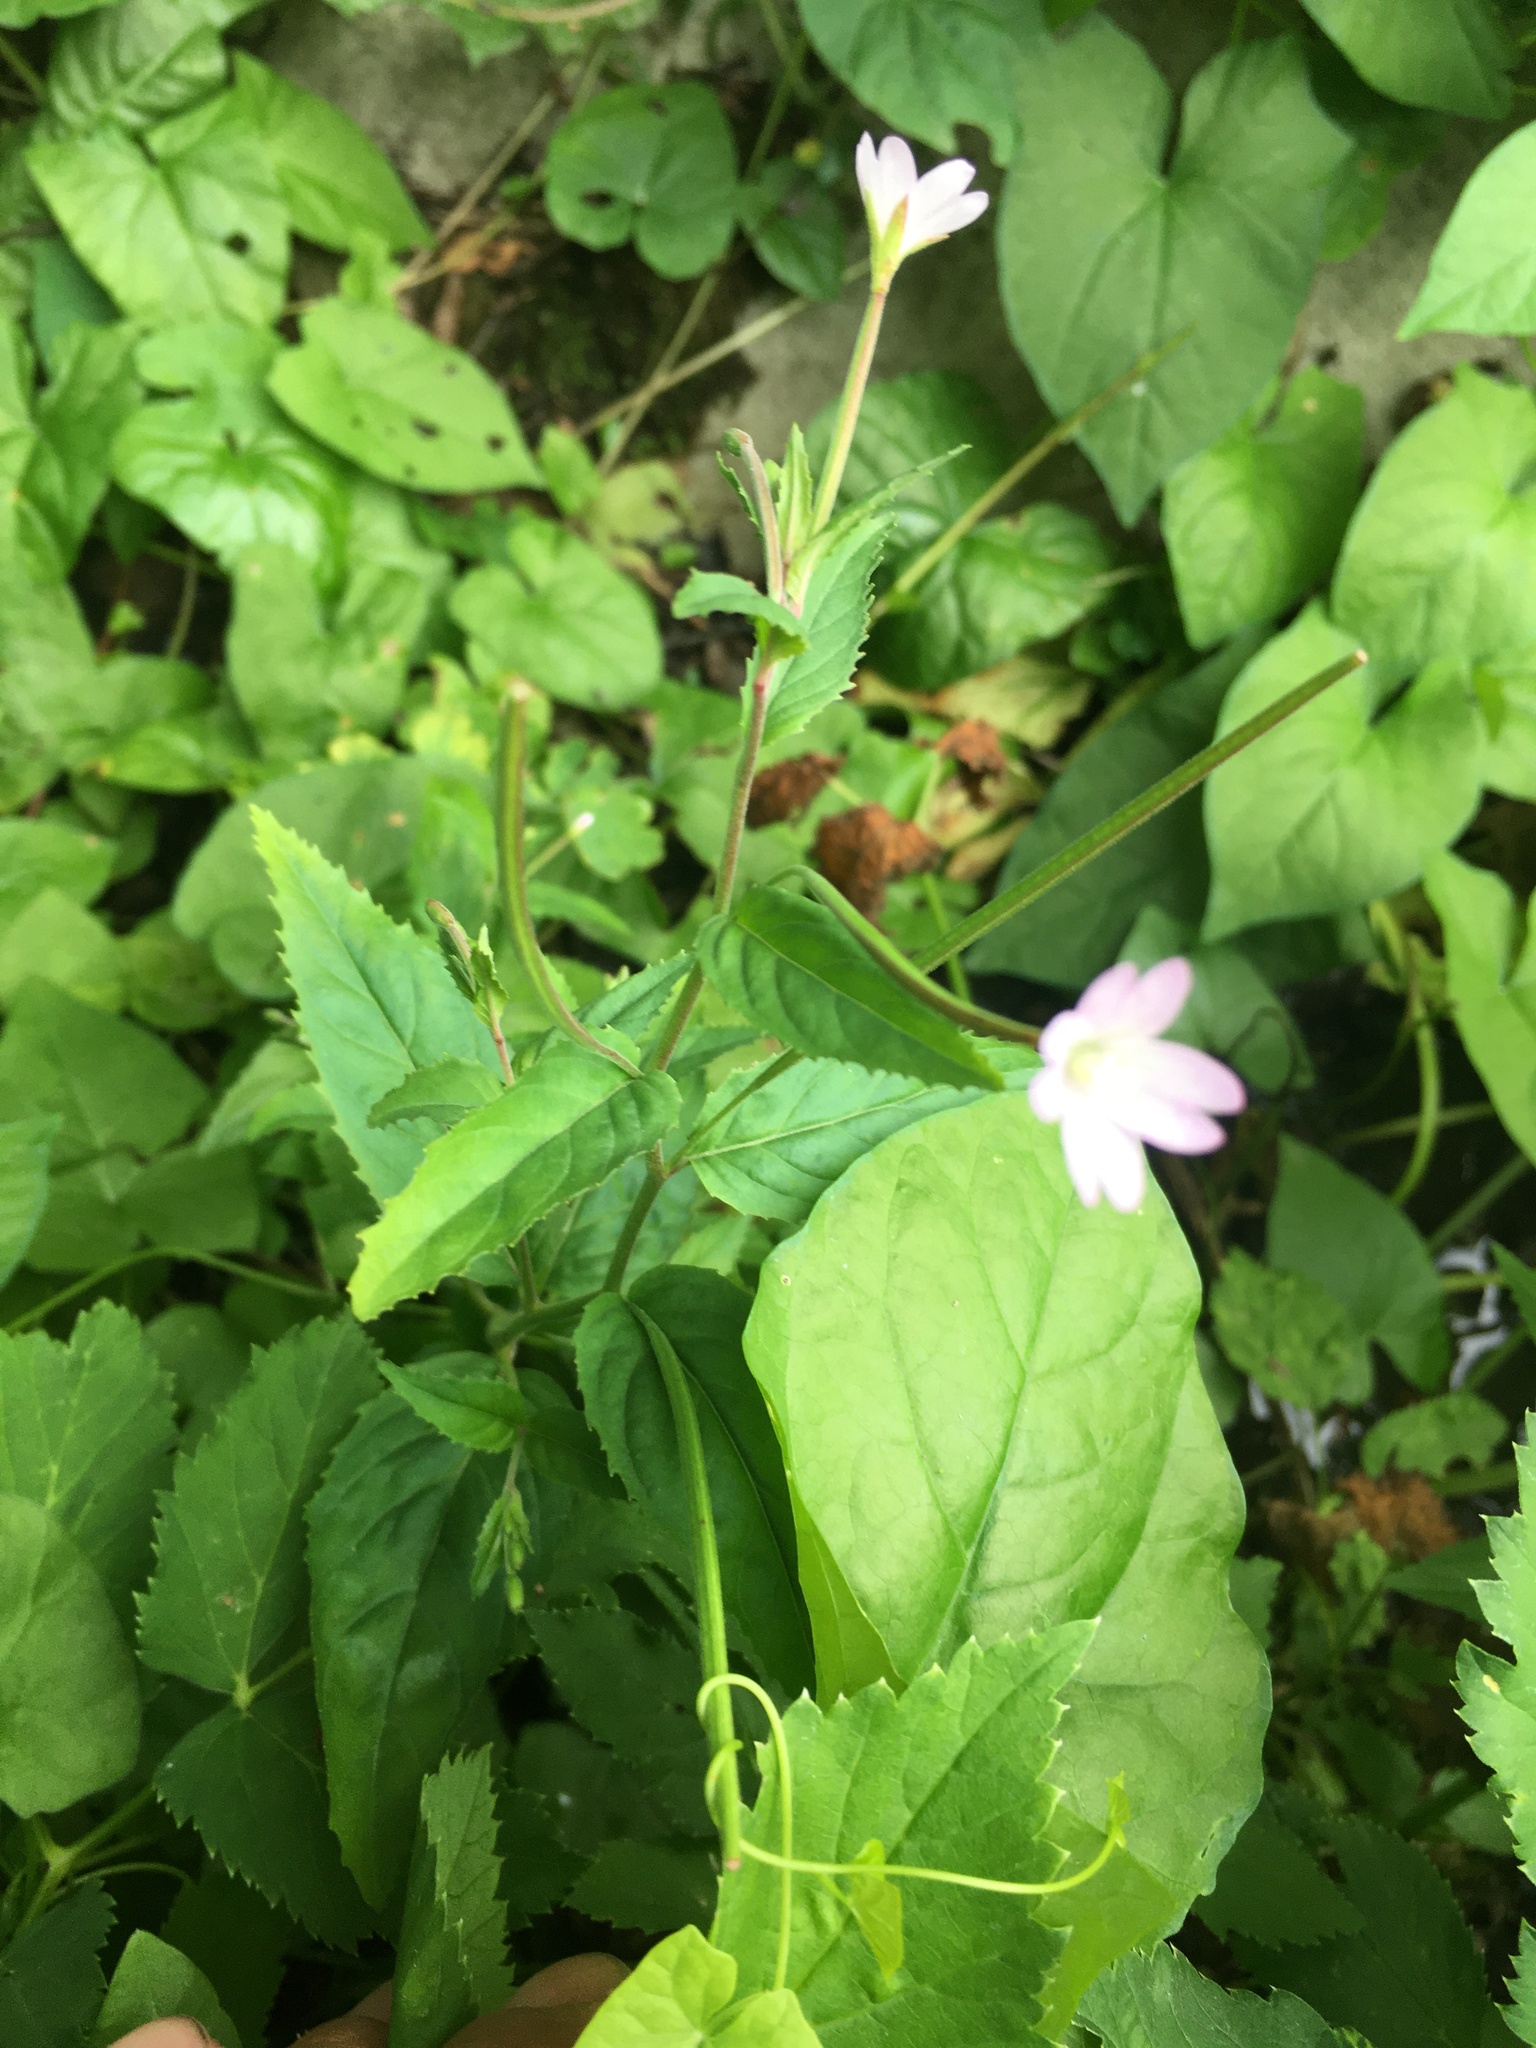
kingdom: Plantae
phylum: Tracheophyta
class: Magnoliopsida
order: Myrtales
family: Onagraceae
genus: Epilobium
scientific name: Epilobium montanum
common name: Broad-leaved willowherb
